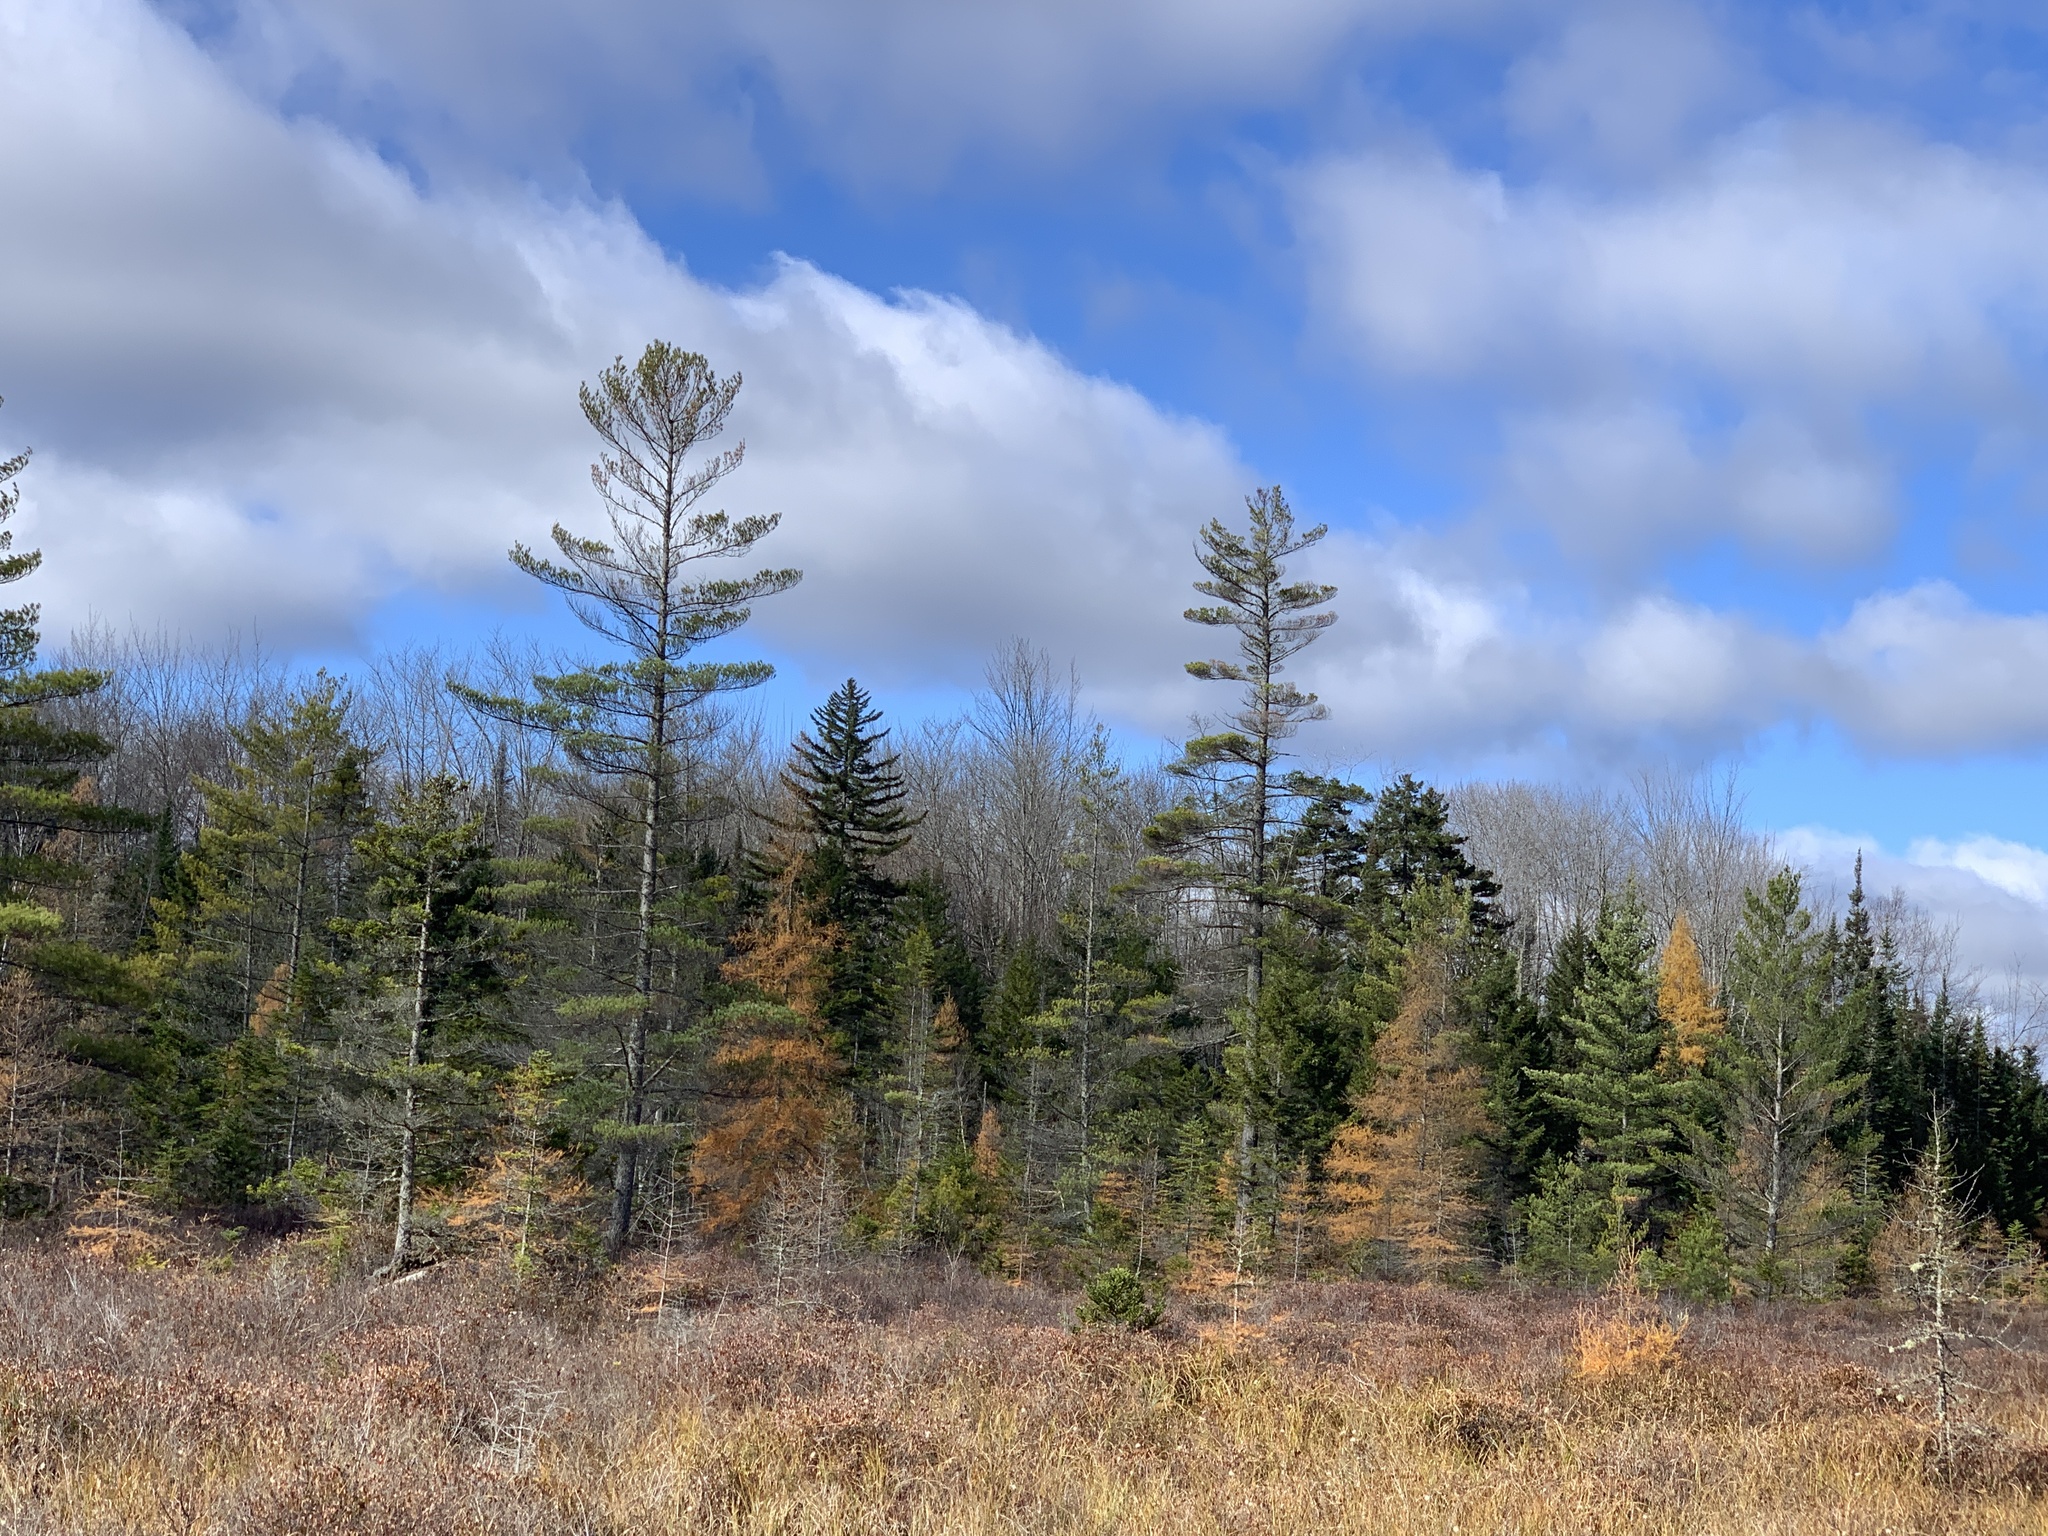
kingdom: Plantae
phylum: Tracheophyta
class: Pinopsida
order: Pinales
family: Pinaceae
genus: Pinus
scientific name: Pinus strobus
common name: Weymouth pine
